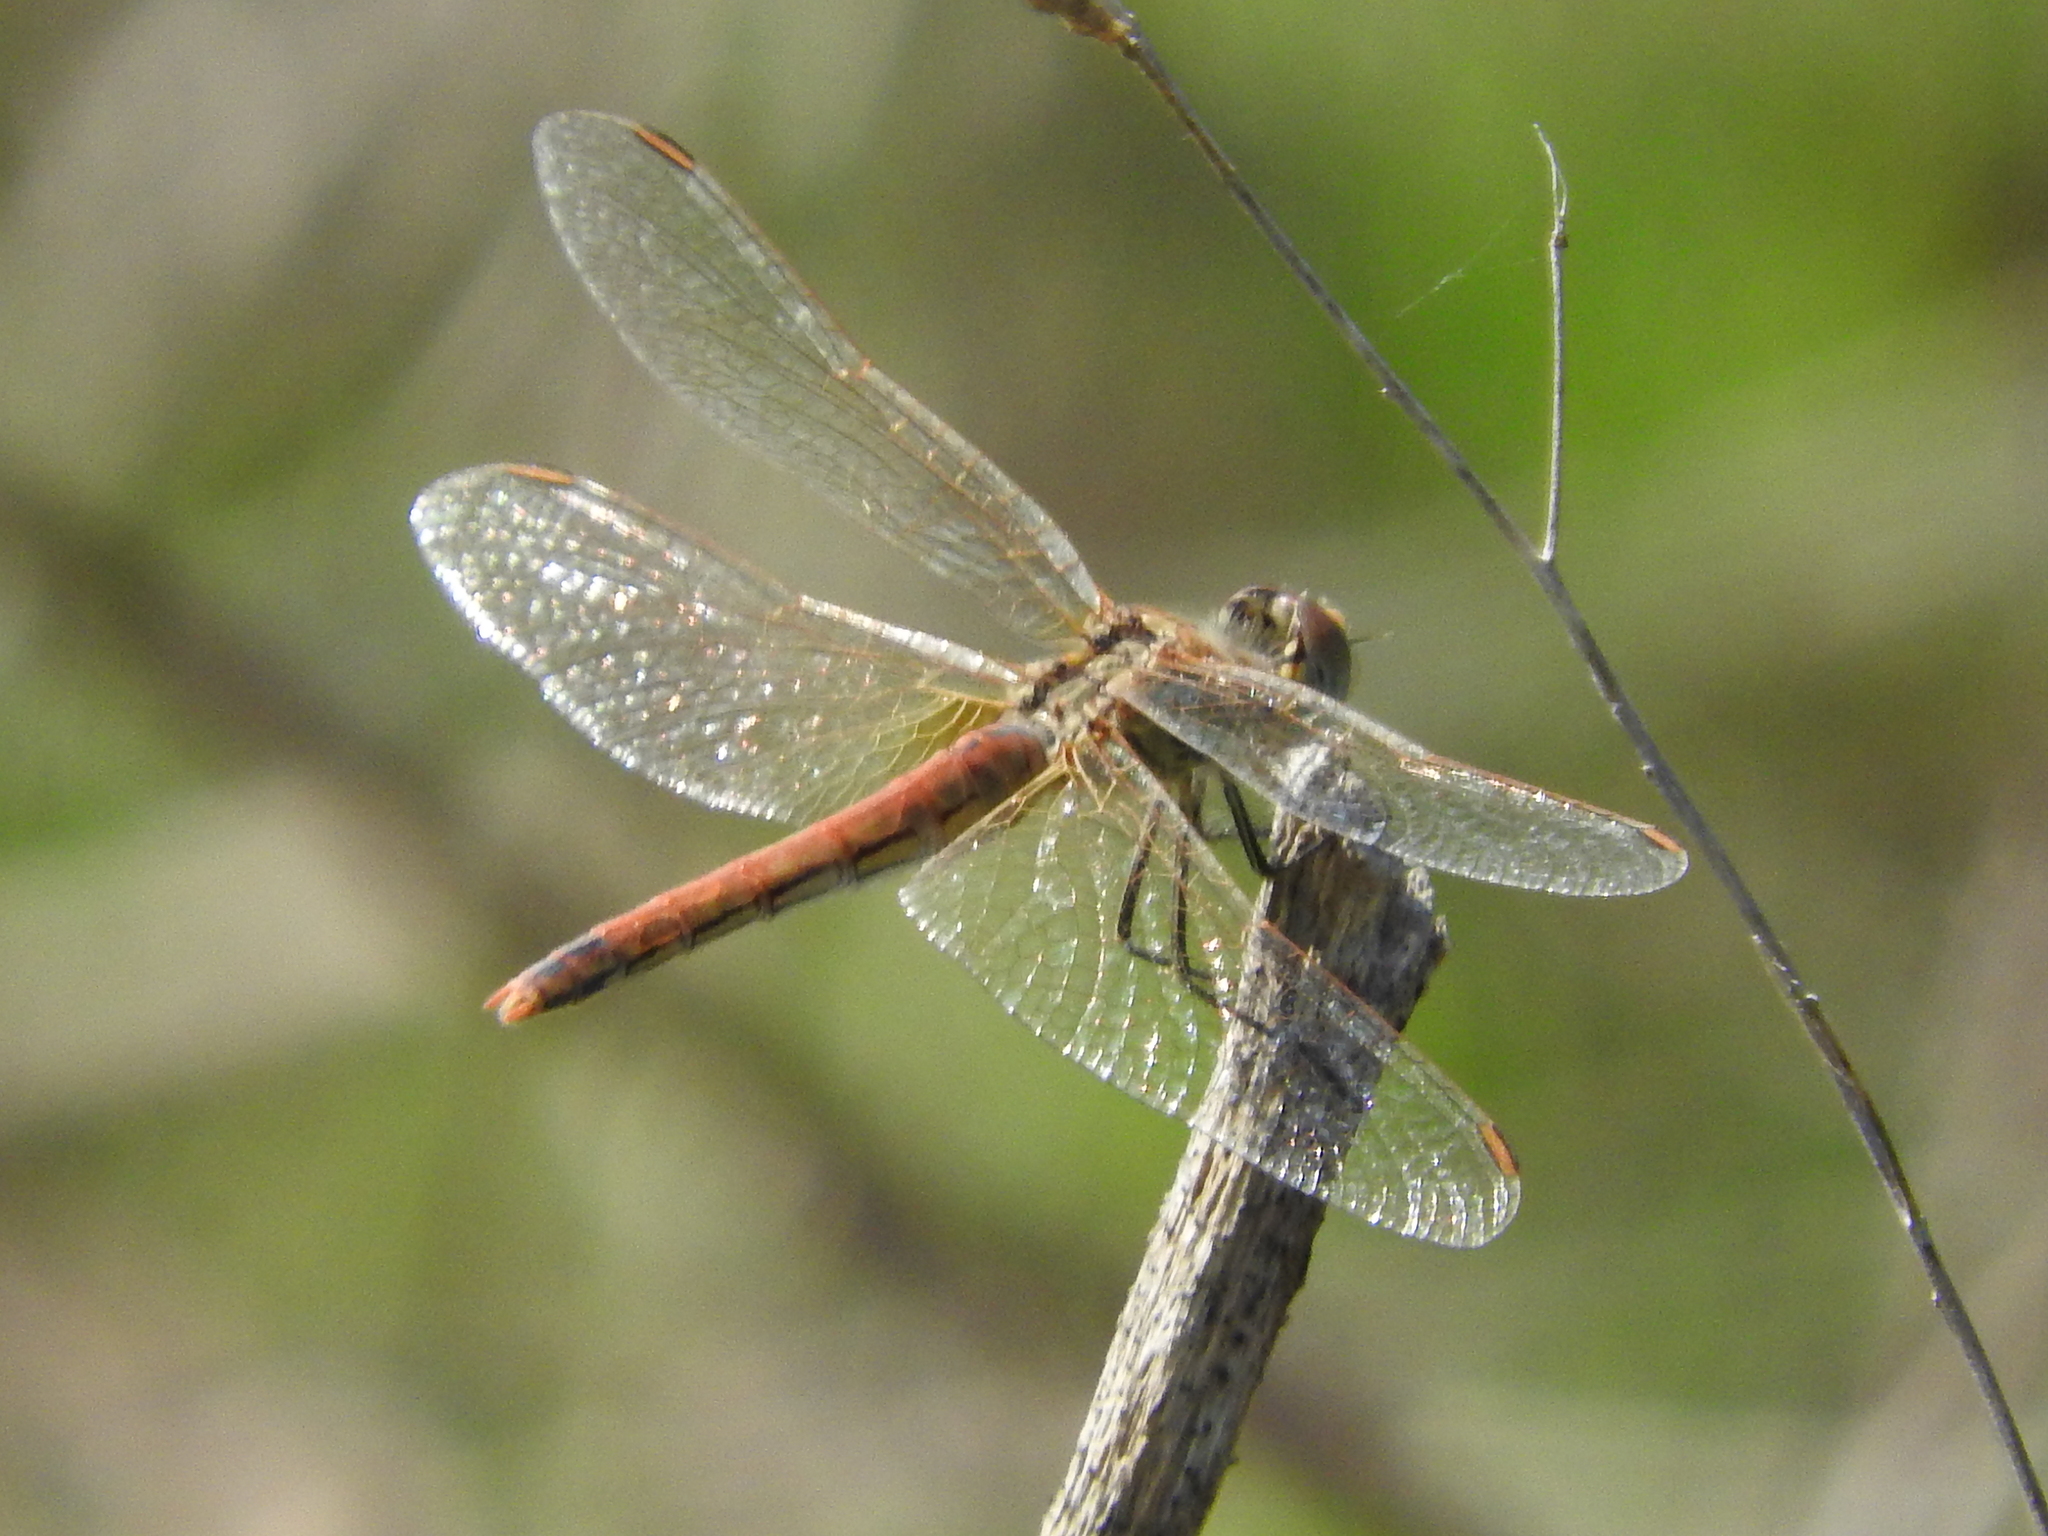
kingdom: Animalia
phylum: Arthropoda
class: Insecta
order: Odonata
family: Libellulidae
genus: Sympetrum
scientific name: Sympetrum fonscolombii
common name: Red-veined darter
